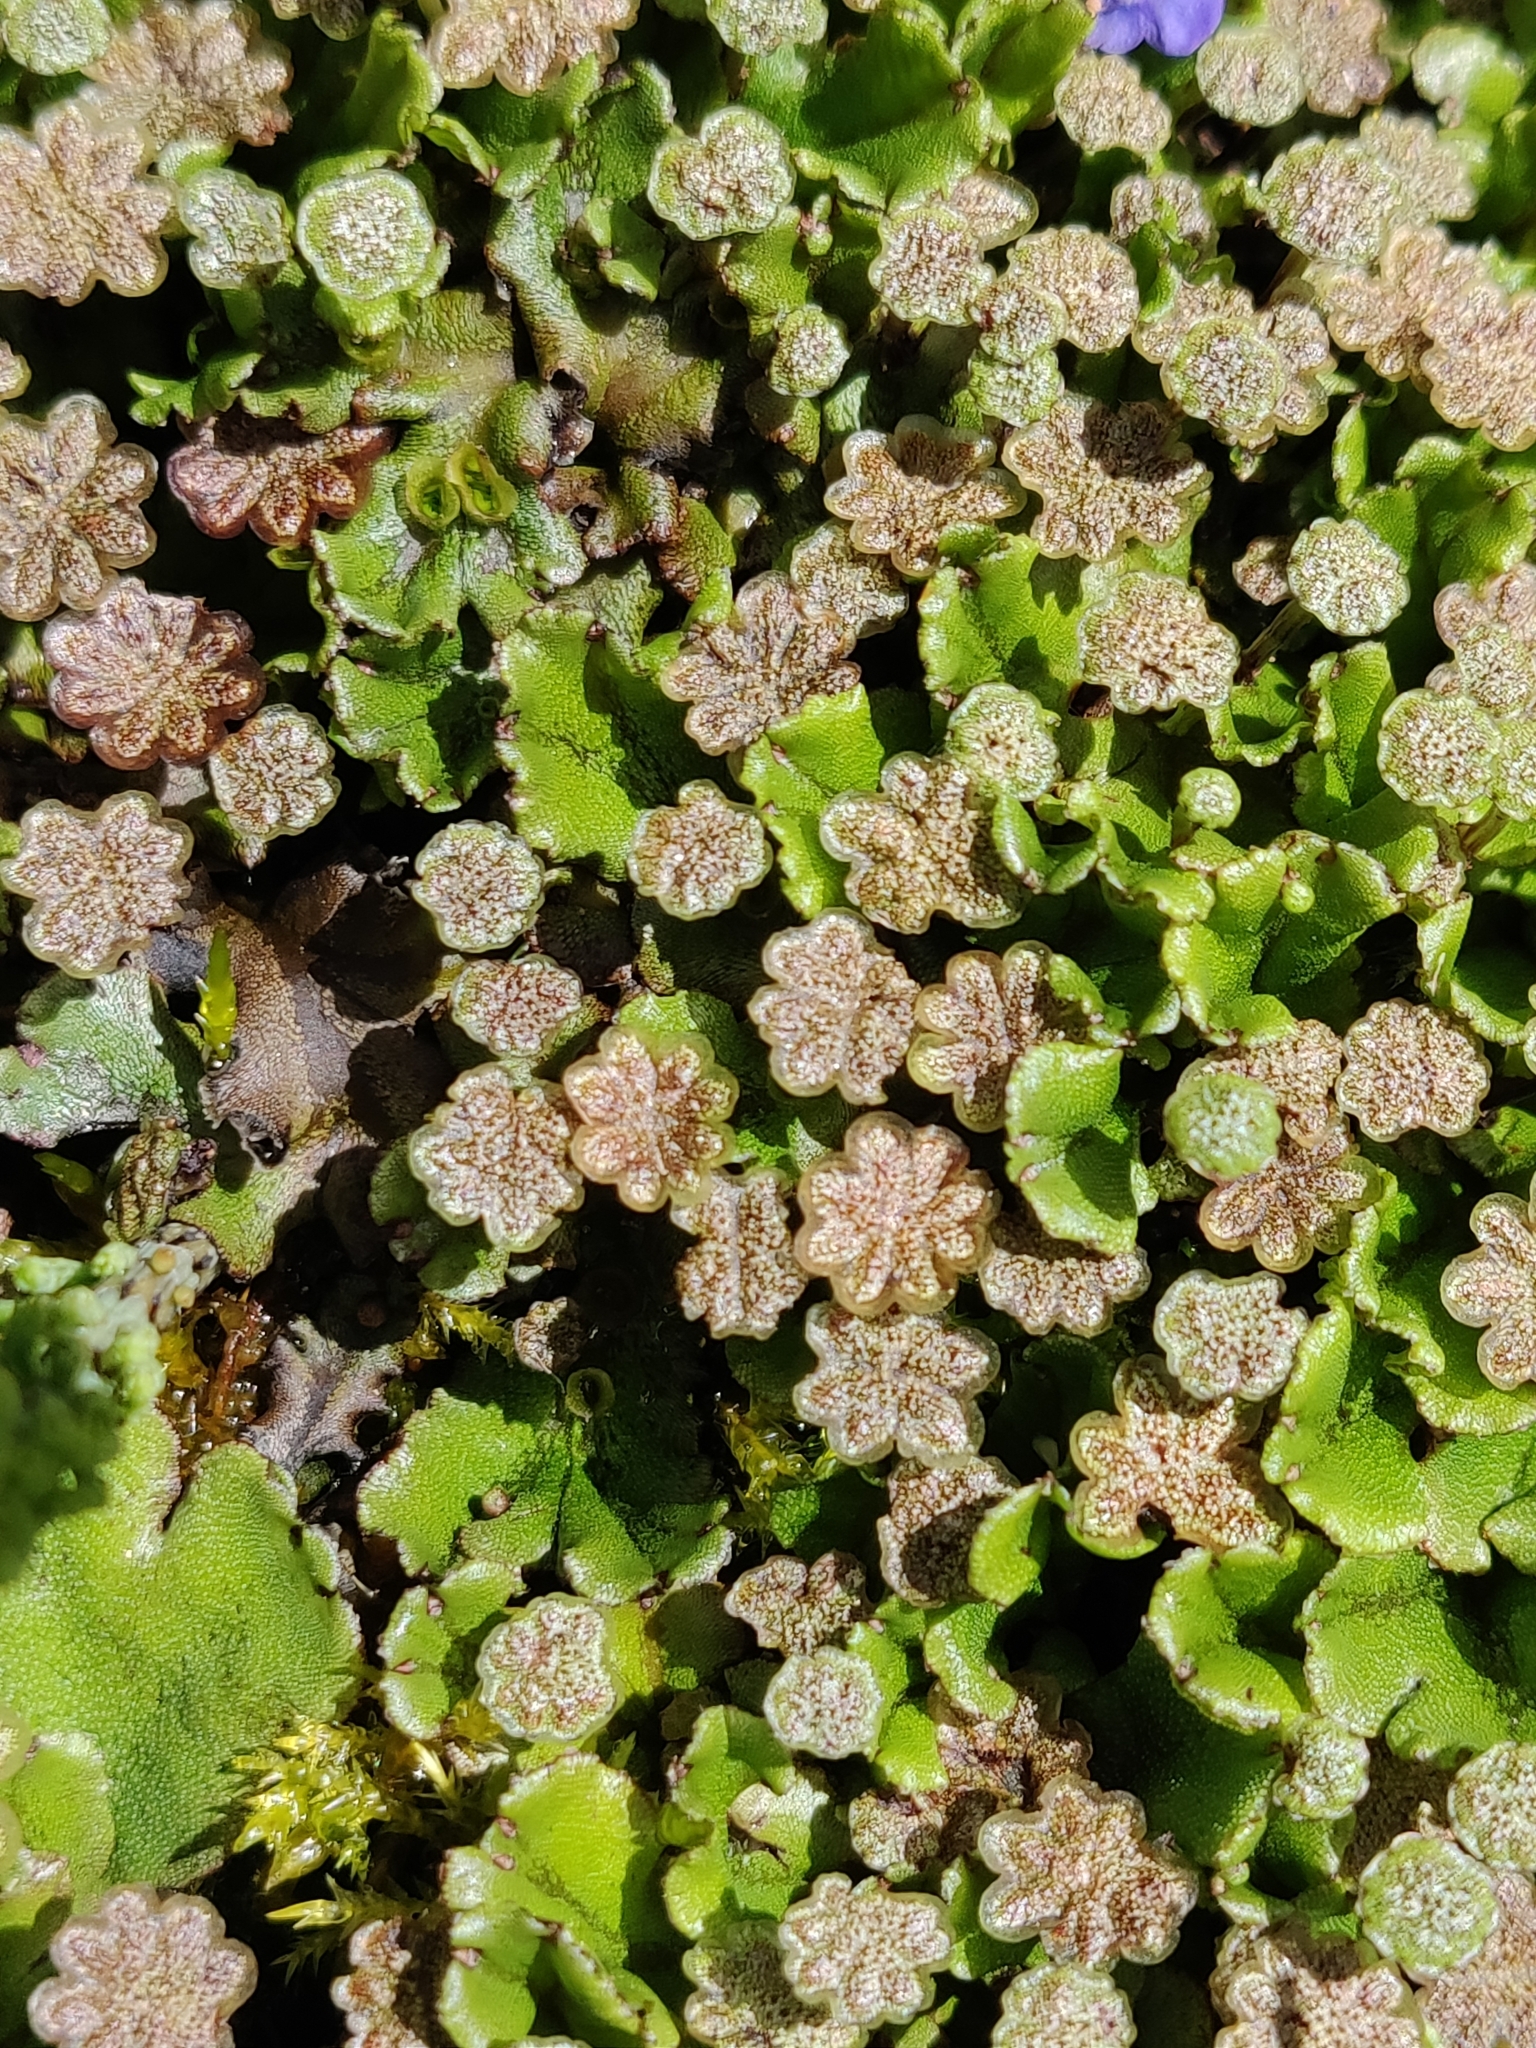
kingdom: Plantae
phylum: Marchantiophyta
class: Marchantiopsida
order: Marchantiales
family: Marchantiaceae
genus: Marchantia
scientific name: Marchantia polymorpha
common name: Common liverwort
